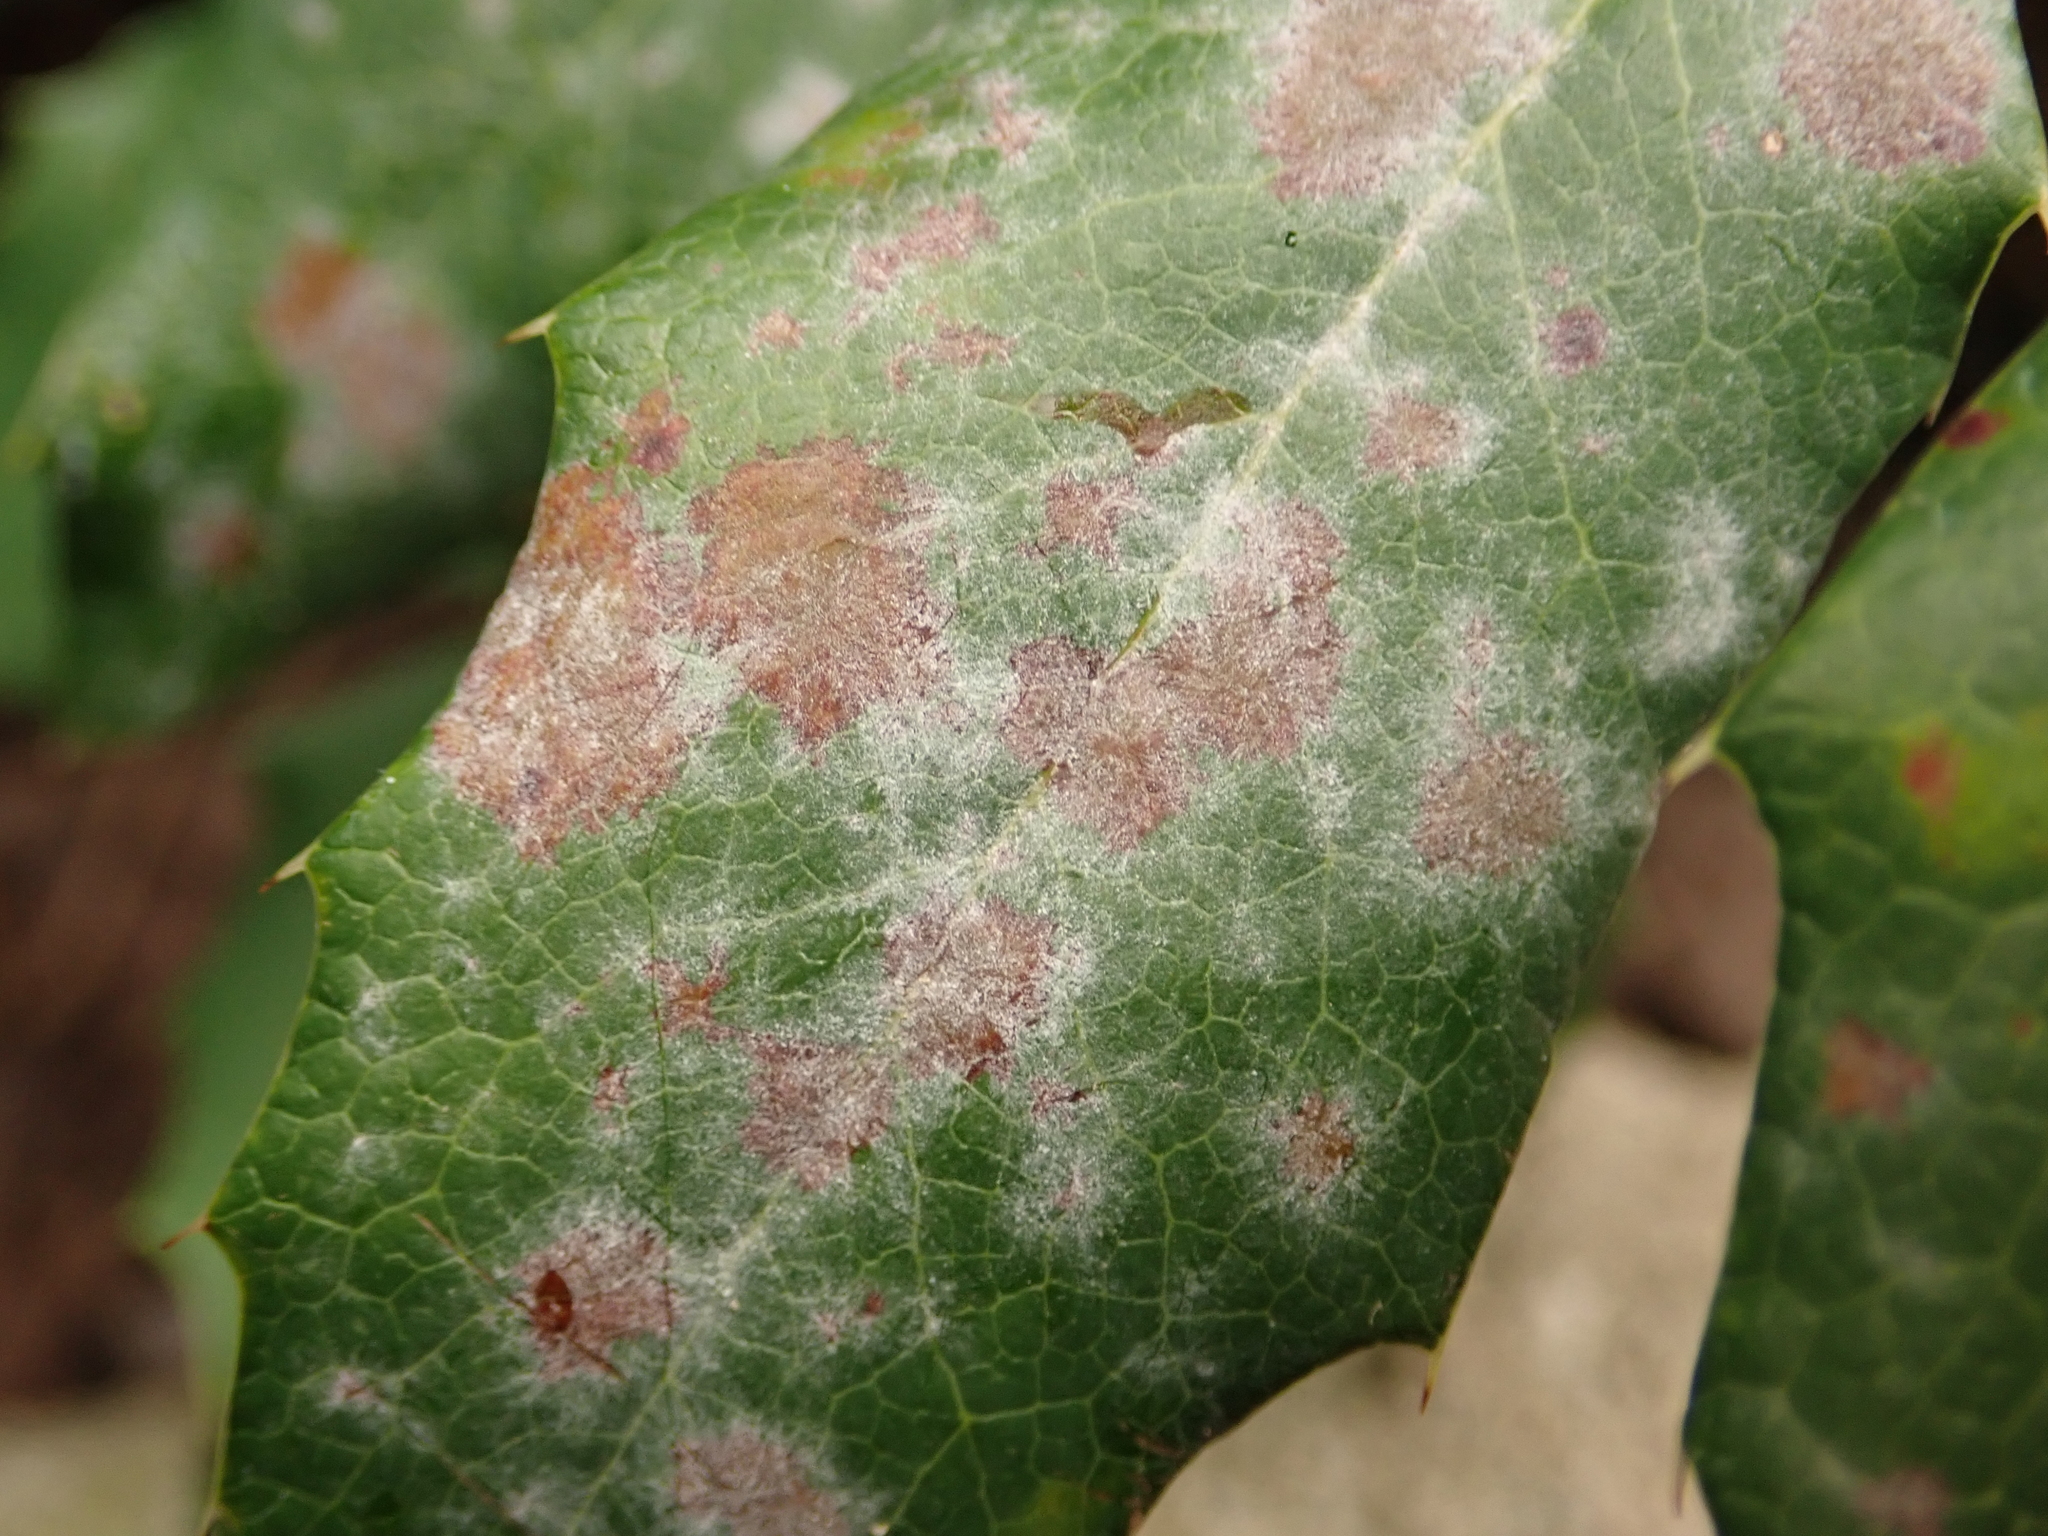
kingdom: Fungi
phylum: Ascomycota
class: Leotiomycetes
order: Helotiales
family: Erysiphaceae
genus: Erysiphe
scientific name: Erysiphe berberidis
